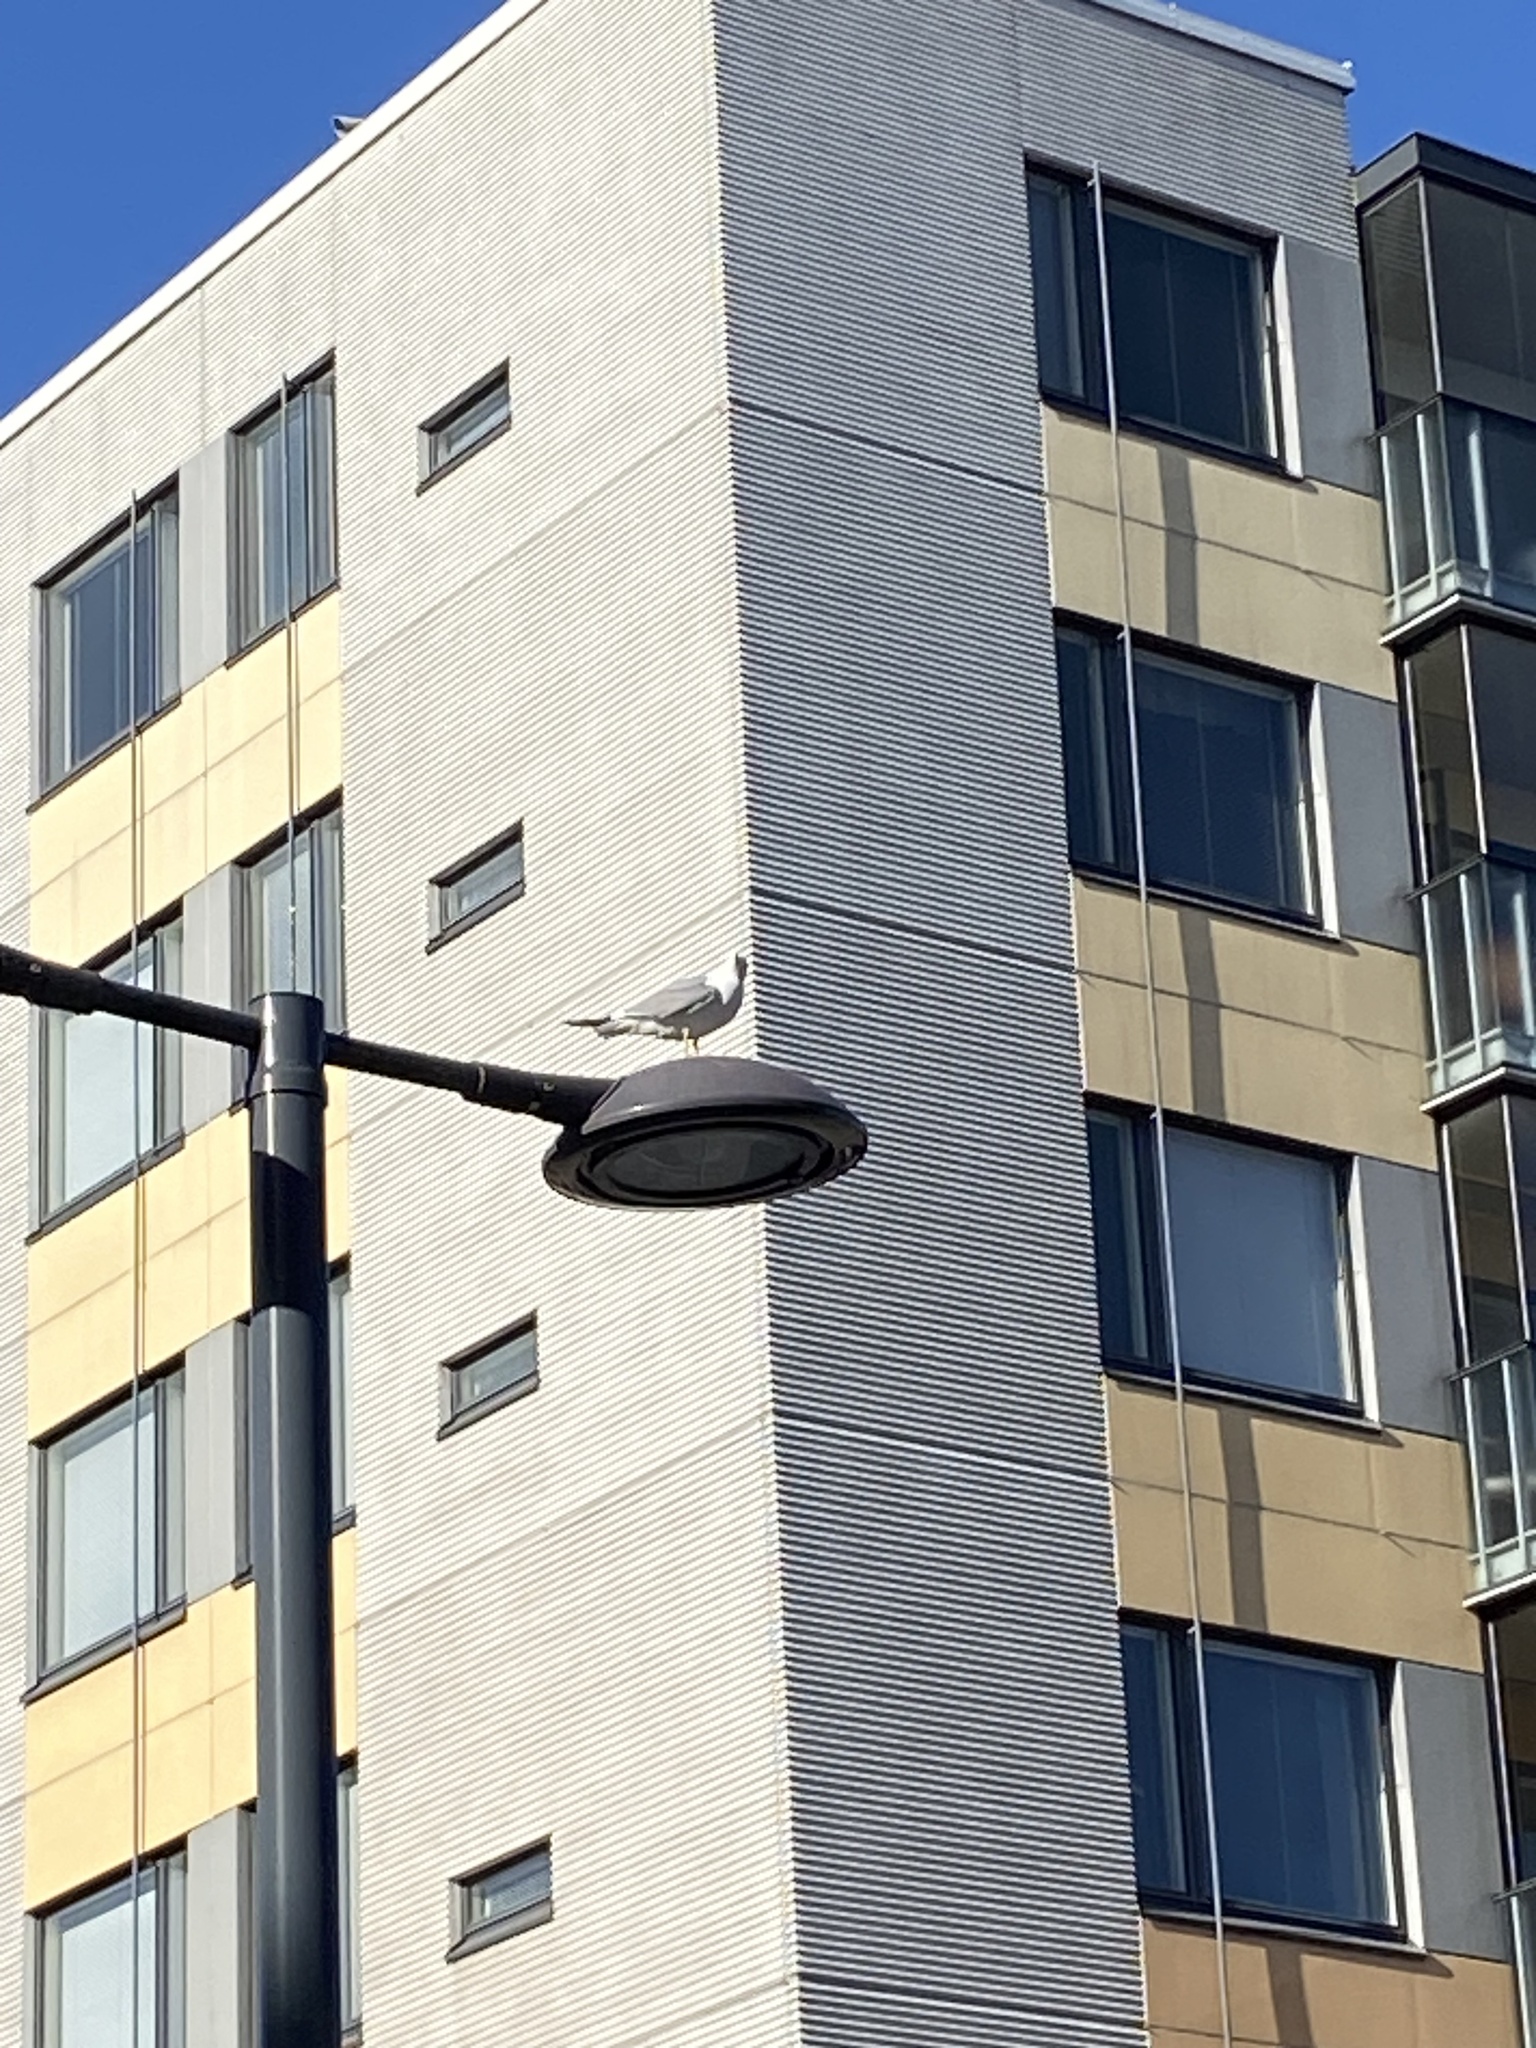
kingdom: Animalia
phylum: Chordata
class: Aves
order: Charadriiformes
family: Laridae
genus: Larus
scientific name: Larus canus
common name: Mew gull
